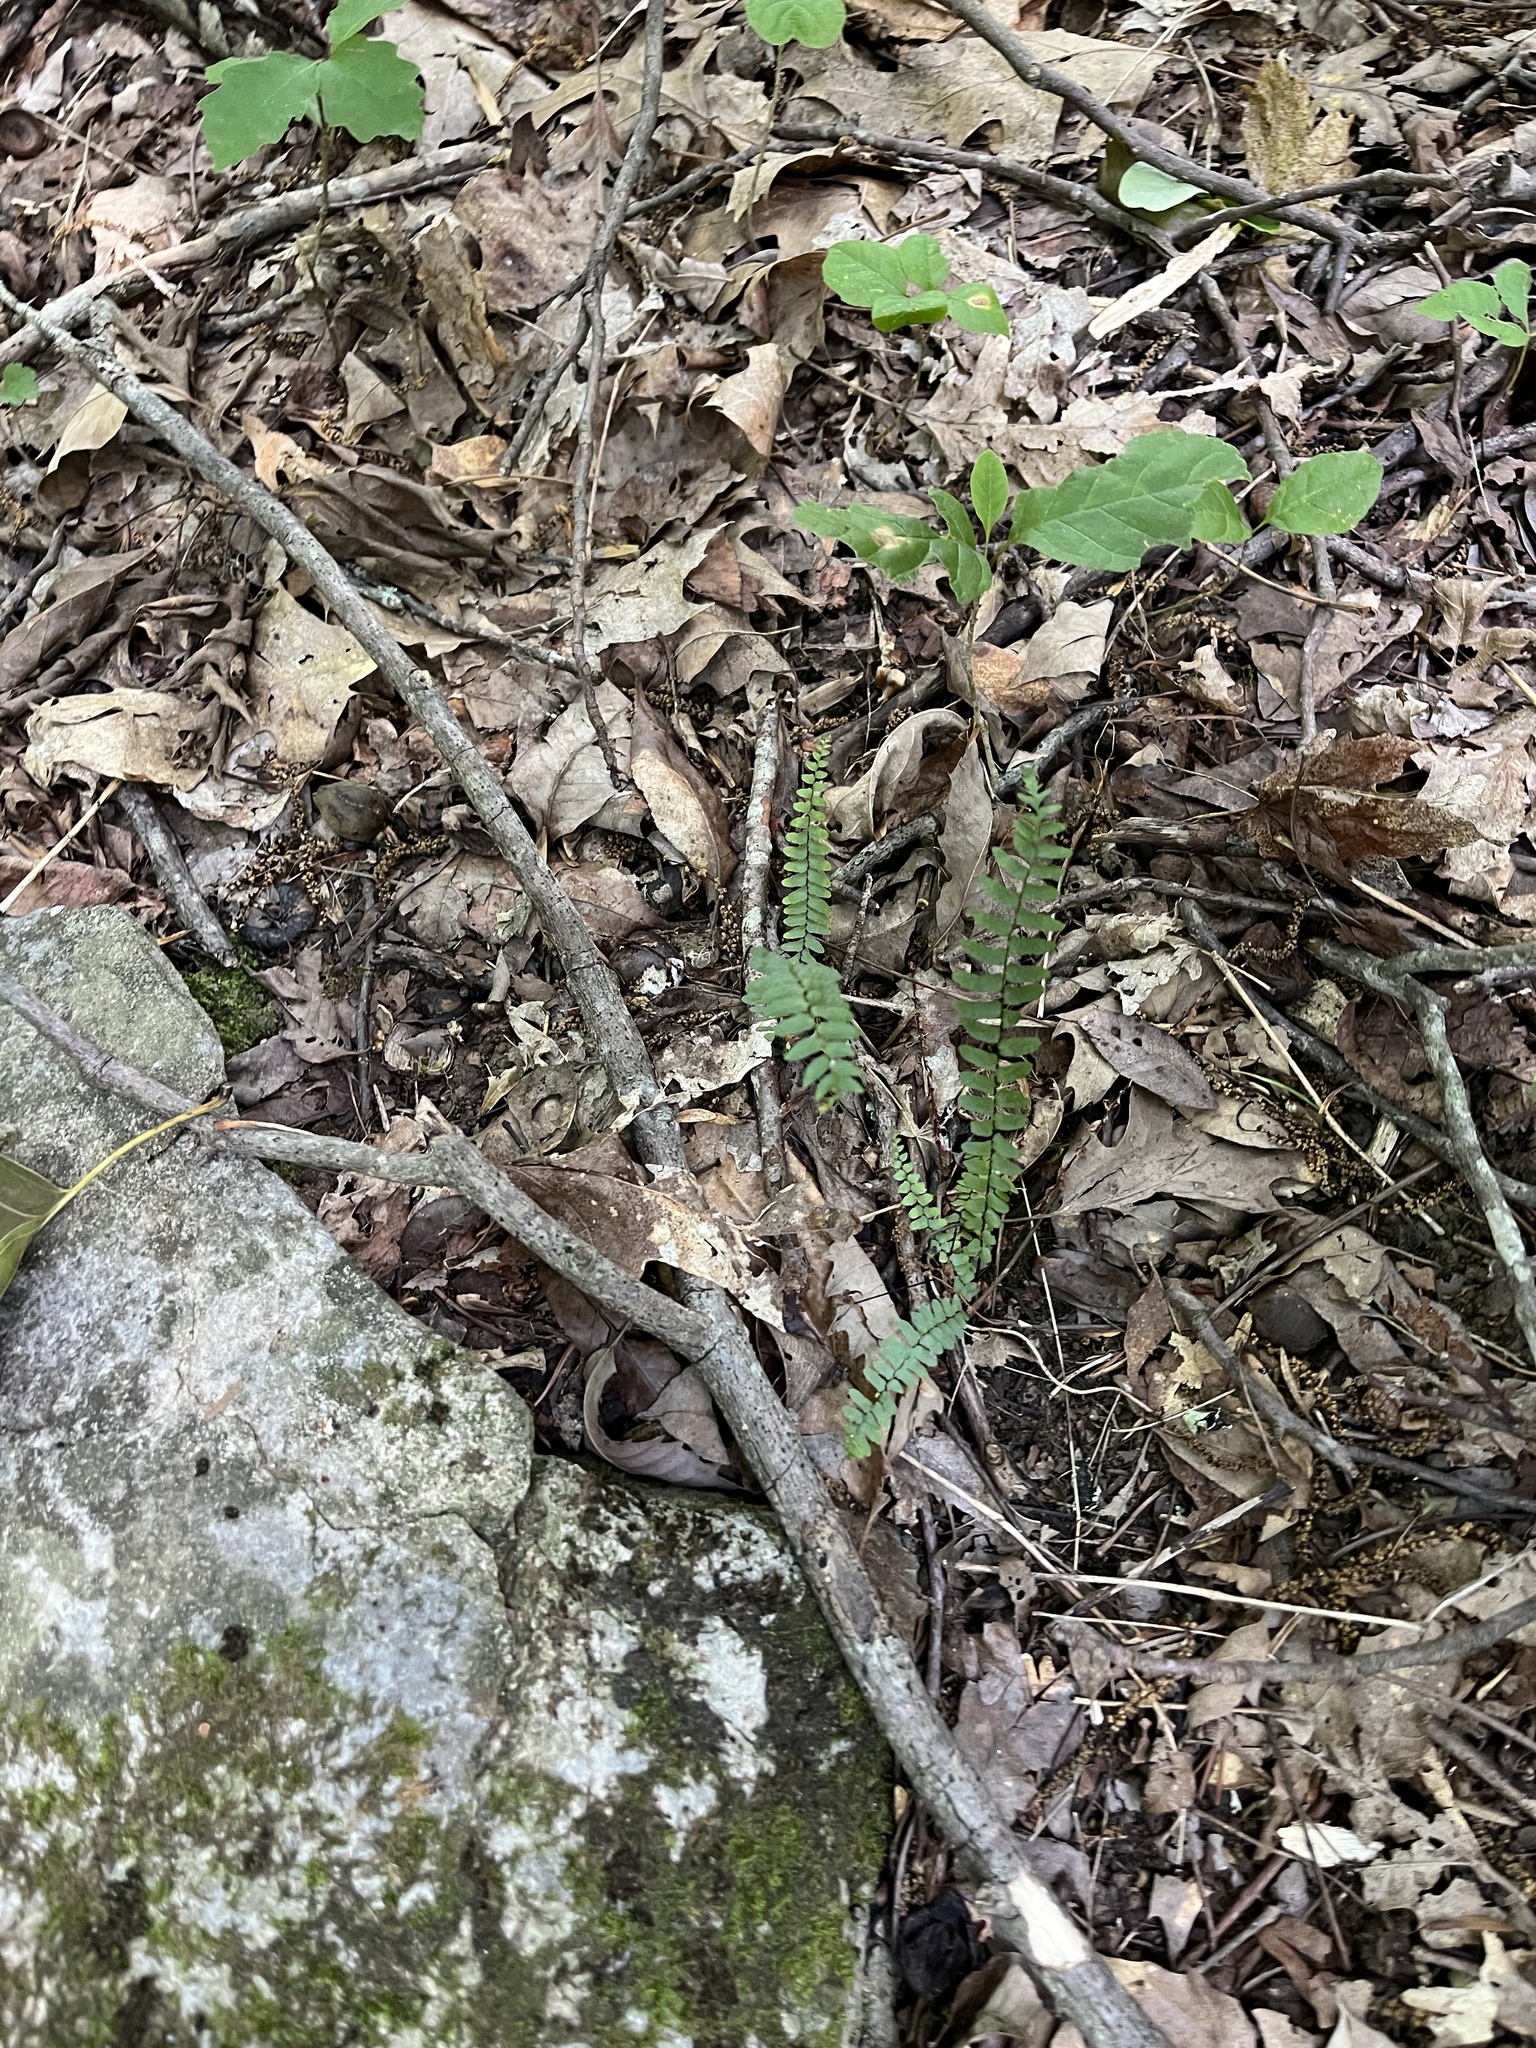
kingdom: Plantae
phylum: Tracheophyta
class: Polypodiopsida
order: Polypodiales
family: Aspleniaceae
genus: Asplenium
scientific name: Asplenium platyneuron
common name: Ebony spleenwort
